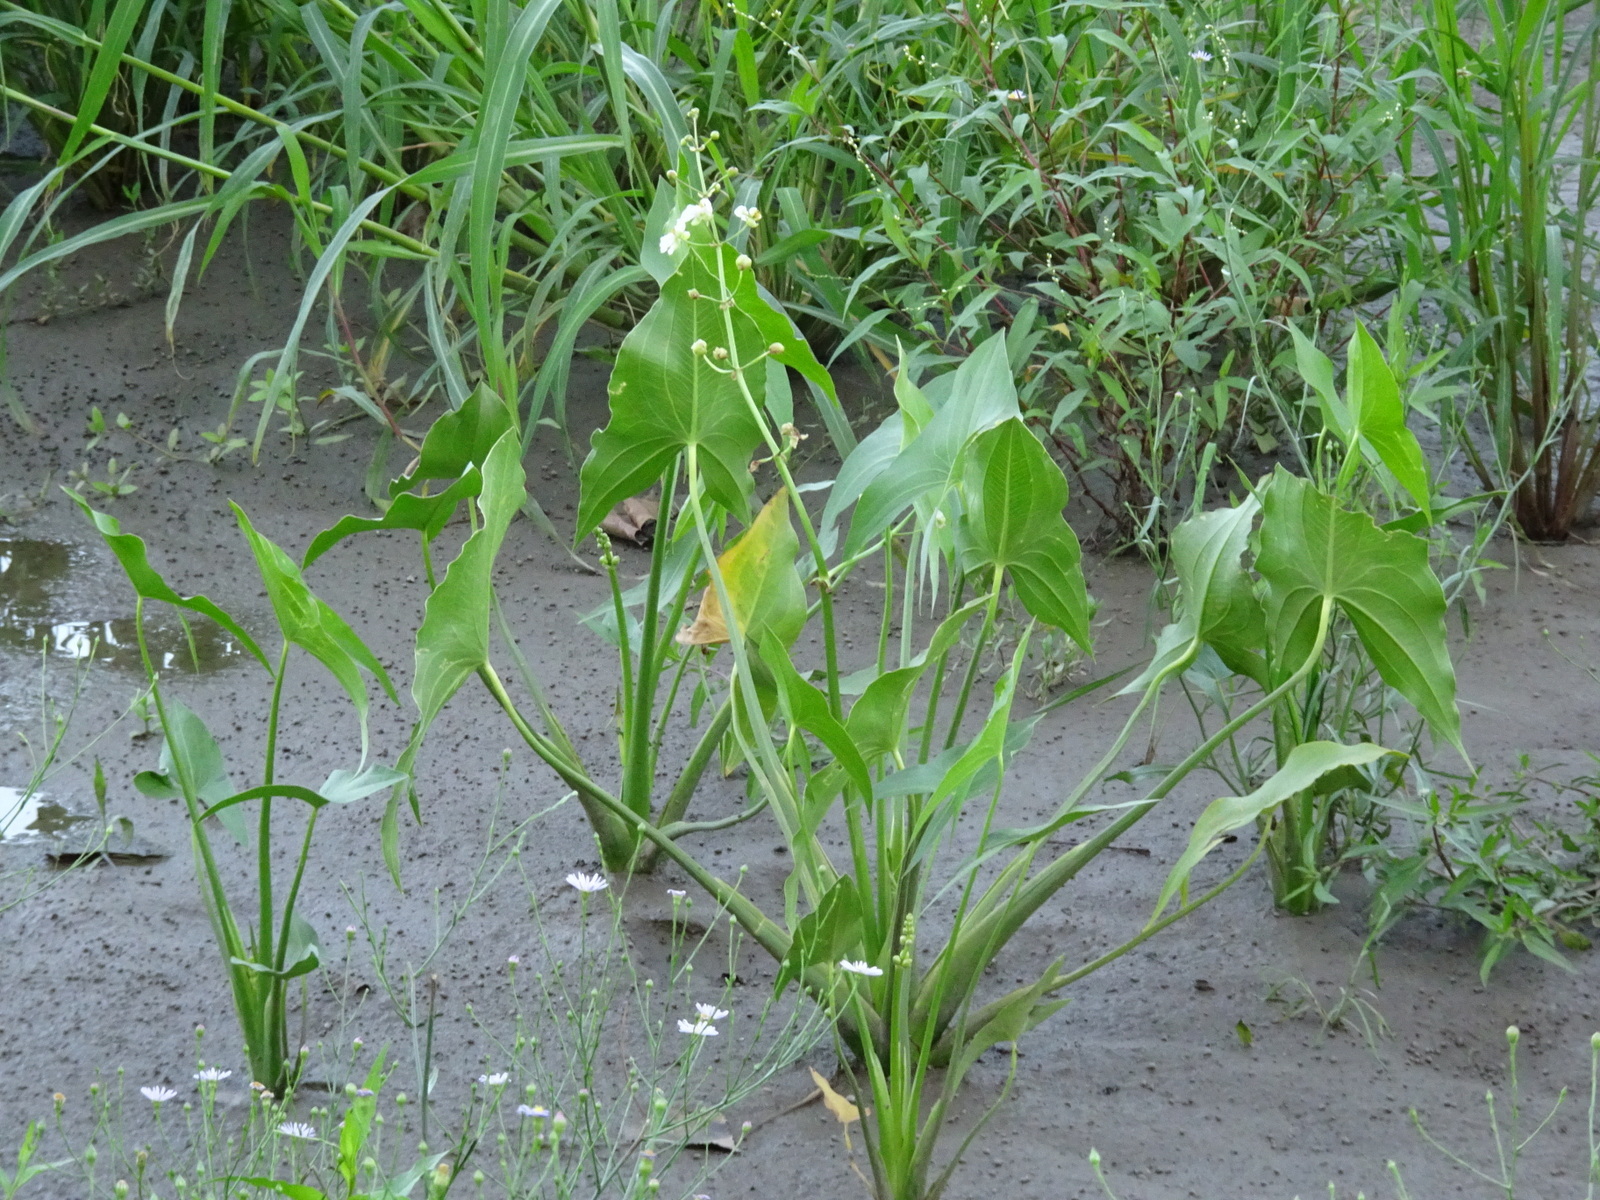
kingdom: Plantae
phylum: Tracheophyta
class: Liliopsida
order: Alismatales
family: Alismataceae
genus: Sagittaria
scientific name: Sagittaria latifolia
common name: Duck-potato
